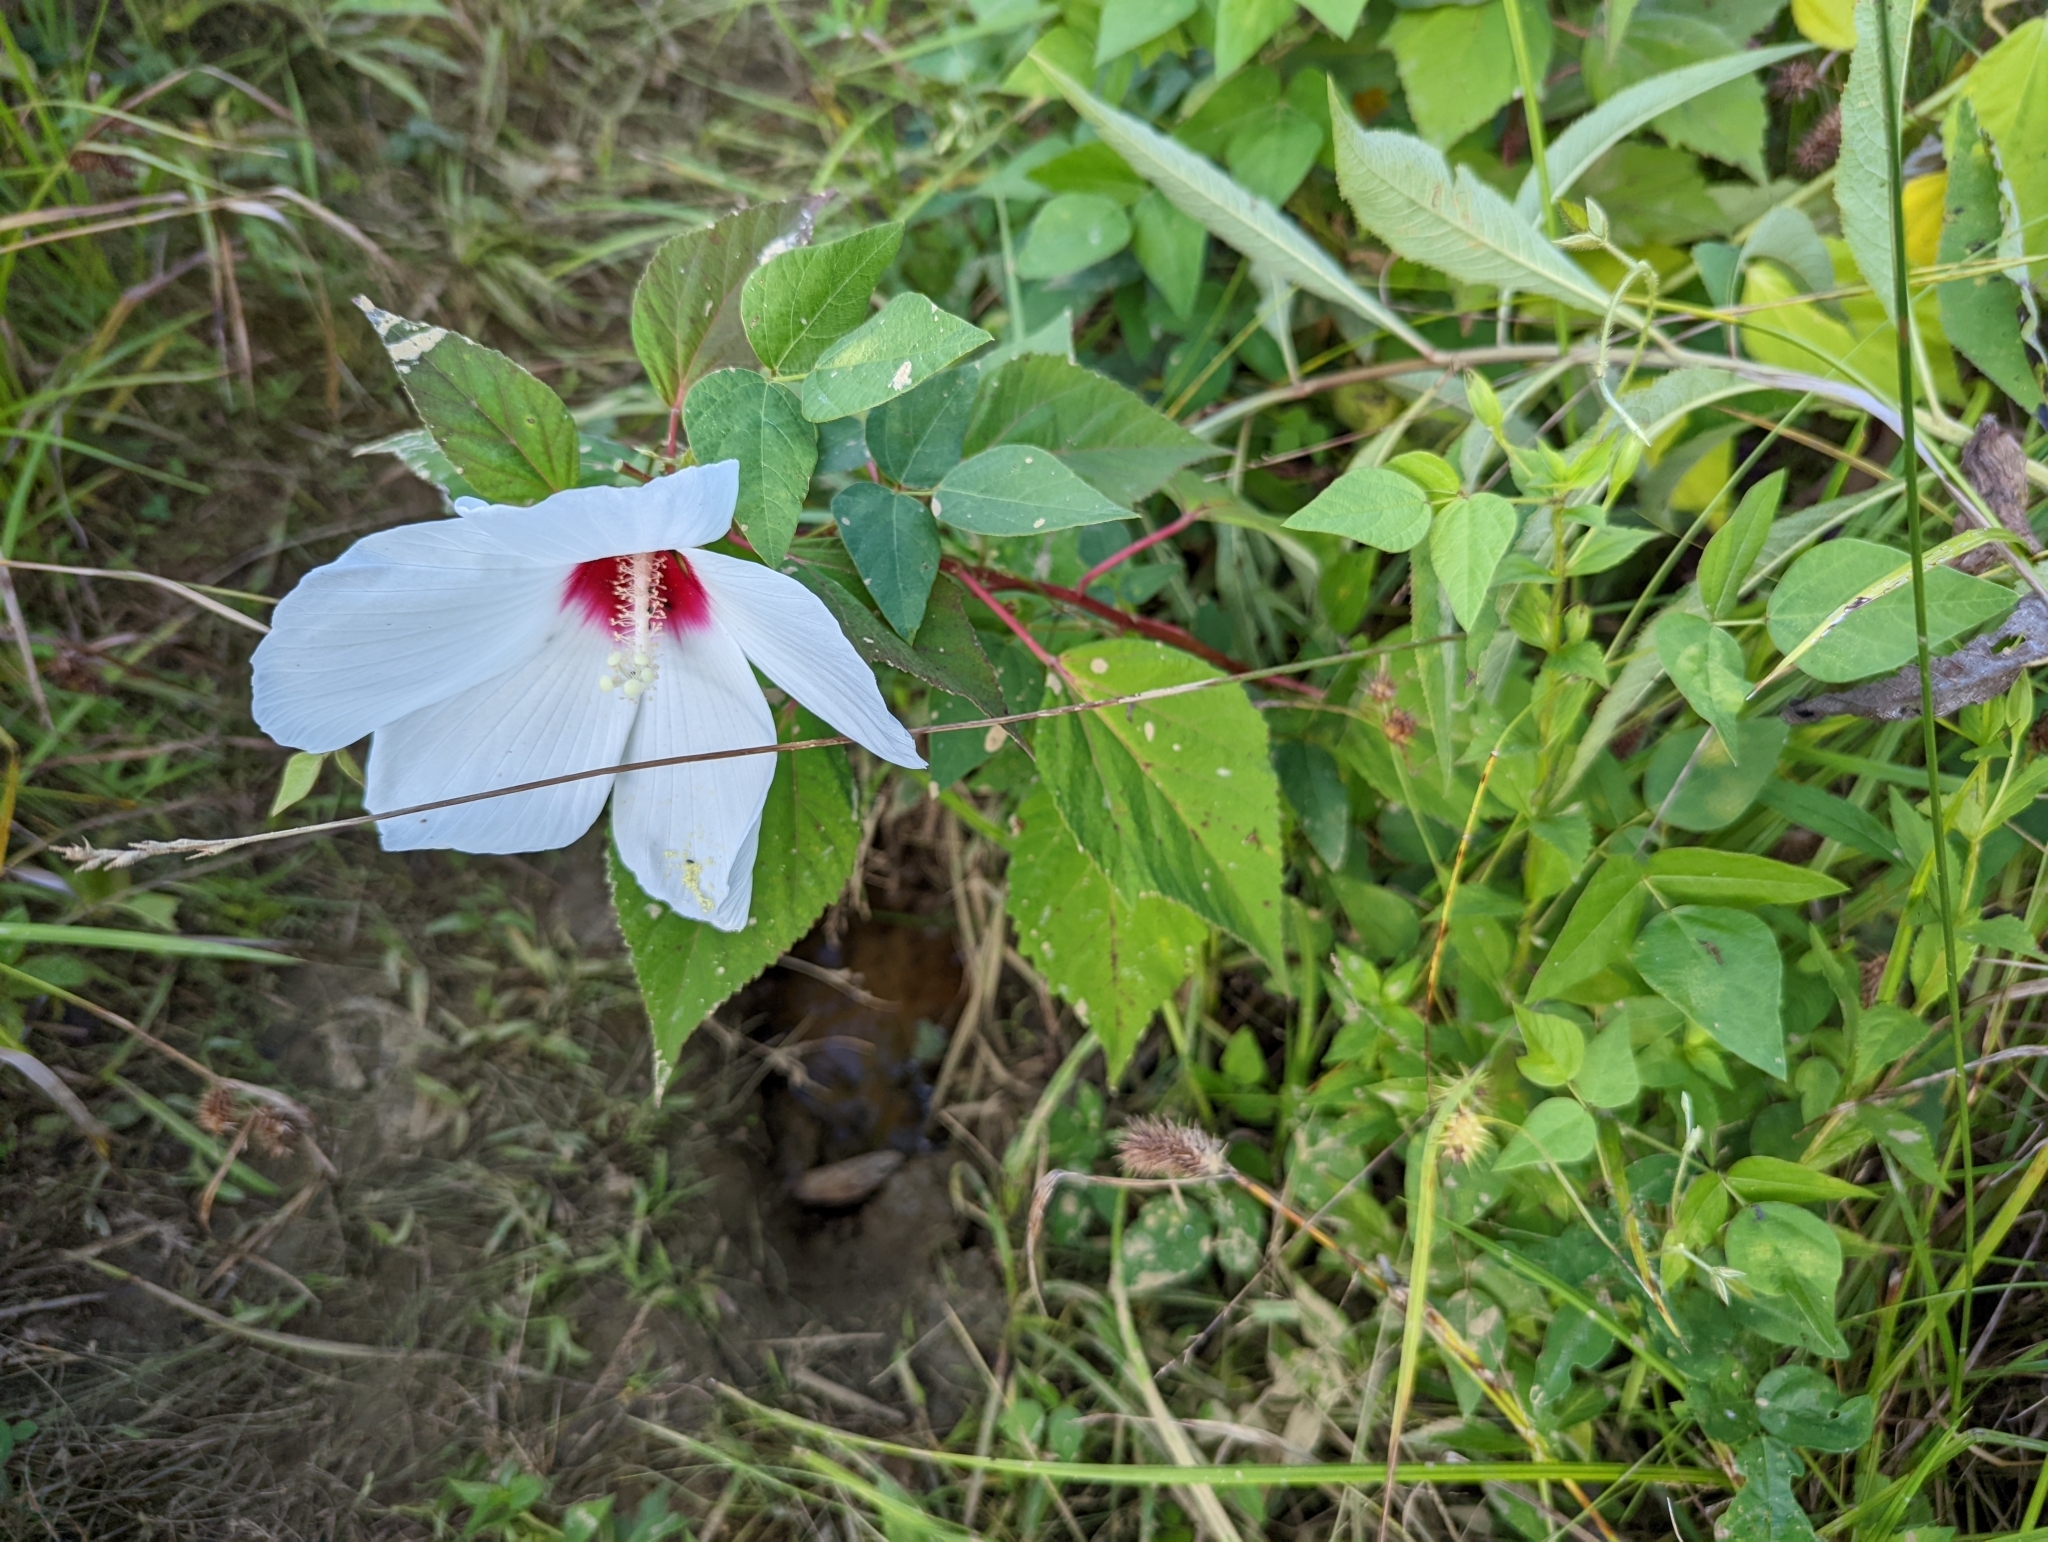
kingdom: Plantae
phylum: Tracheophyta
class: Magnoliopsida
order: Malvales
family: Malvaceae
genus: Hibiscus
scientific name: Hibiscus moscheutos
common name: Common rose-mallow
